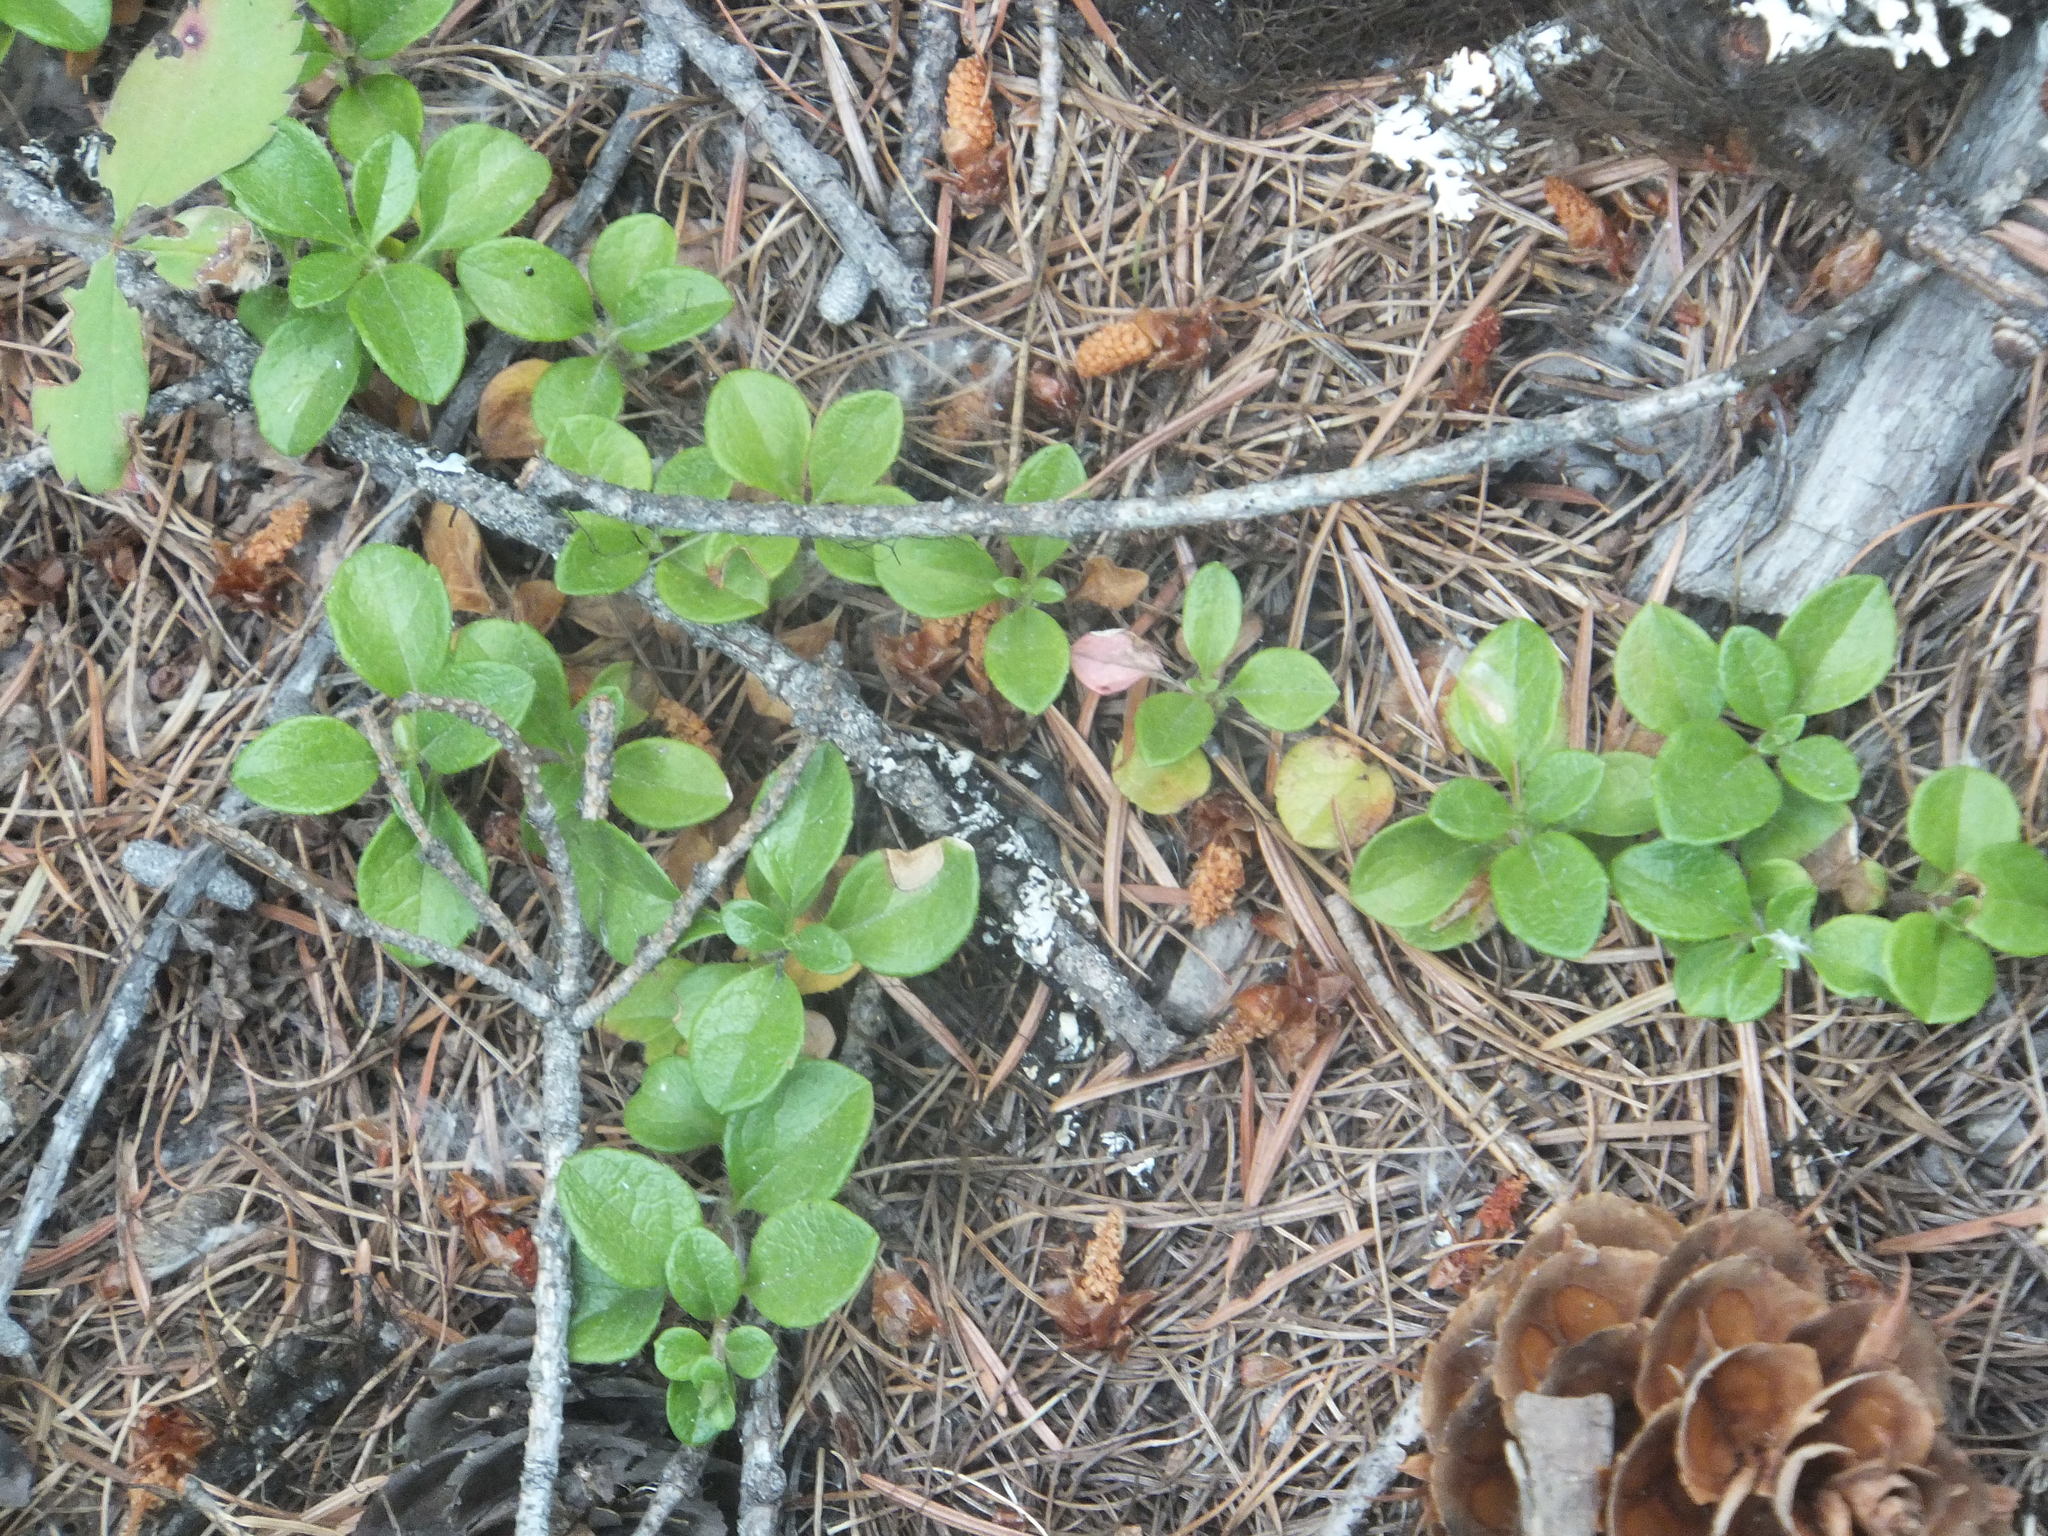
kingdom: Plantae
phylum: Tracheophyta
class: Magnoliopsida
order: Dipsacales
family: Caprifoliaceae
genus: Linnaea
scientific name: Linnaea borealis
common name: Twinflower
